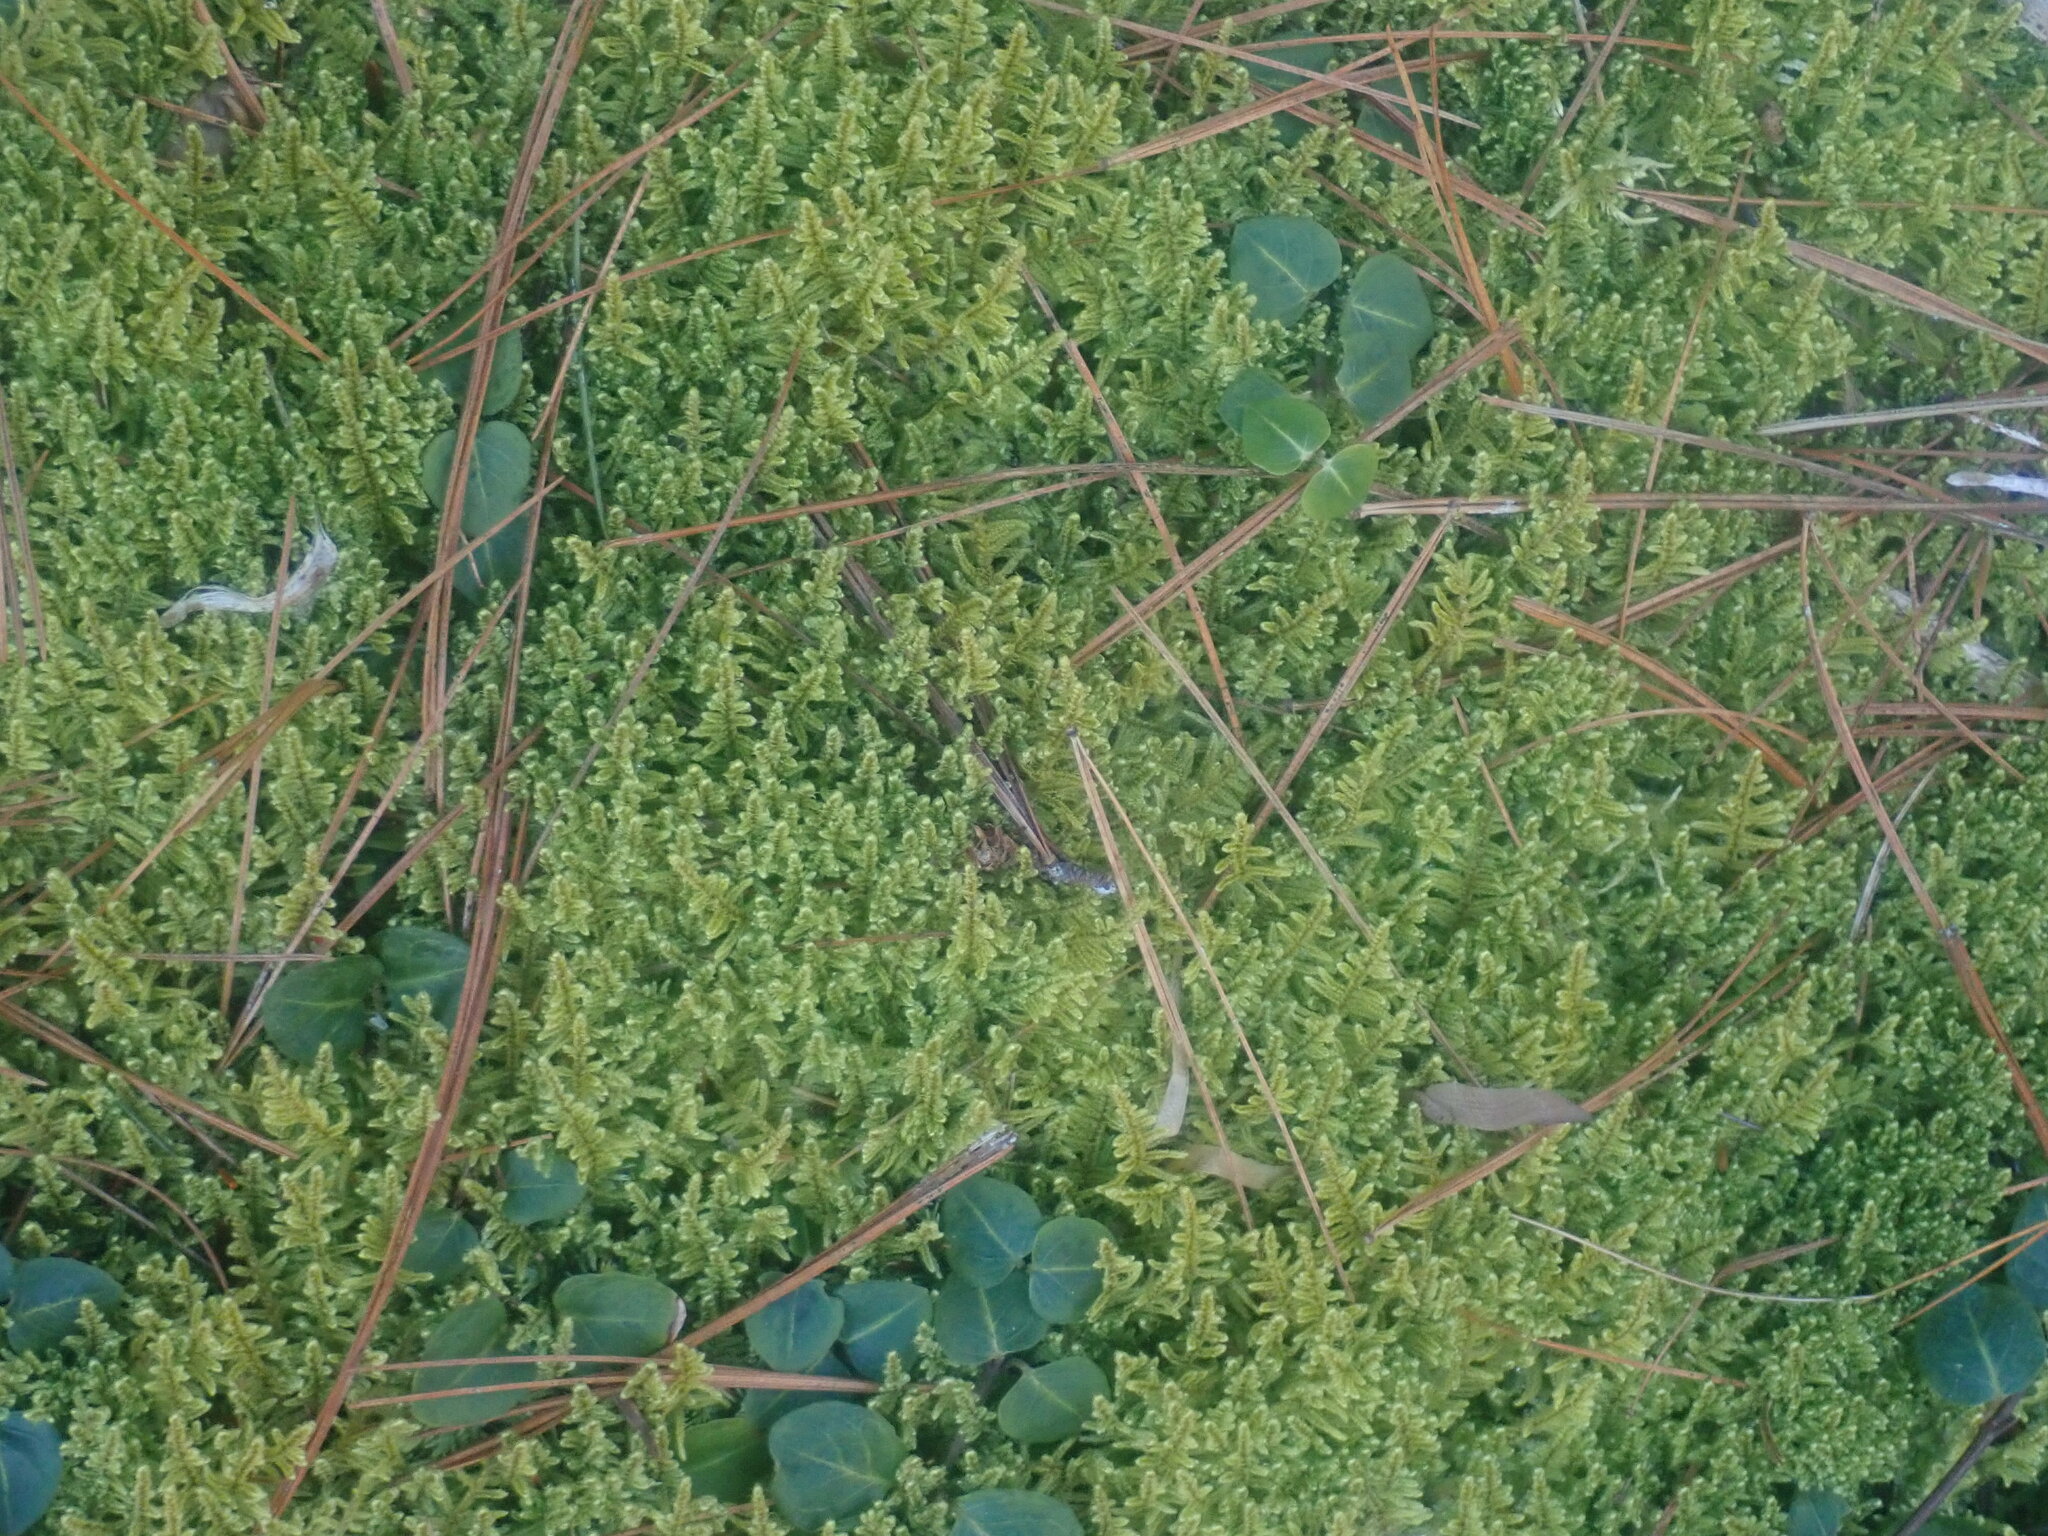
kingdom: Plantae
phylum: Bryophyta
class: Bryopsida
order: Hypnales
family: Callicladiaceae
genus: Callicladium
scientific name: Callicladium imponens
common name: Brocade moss
